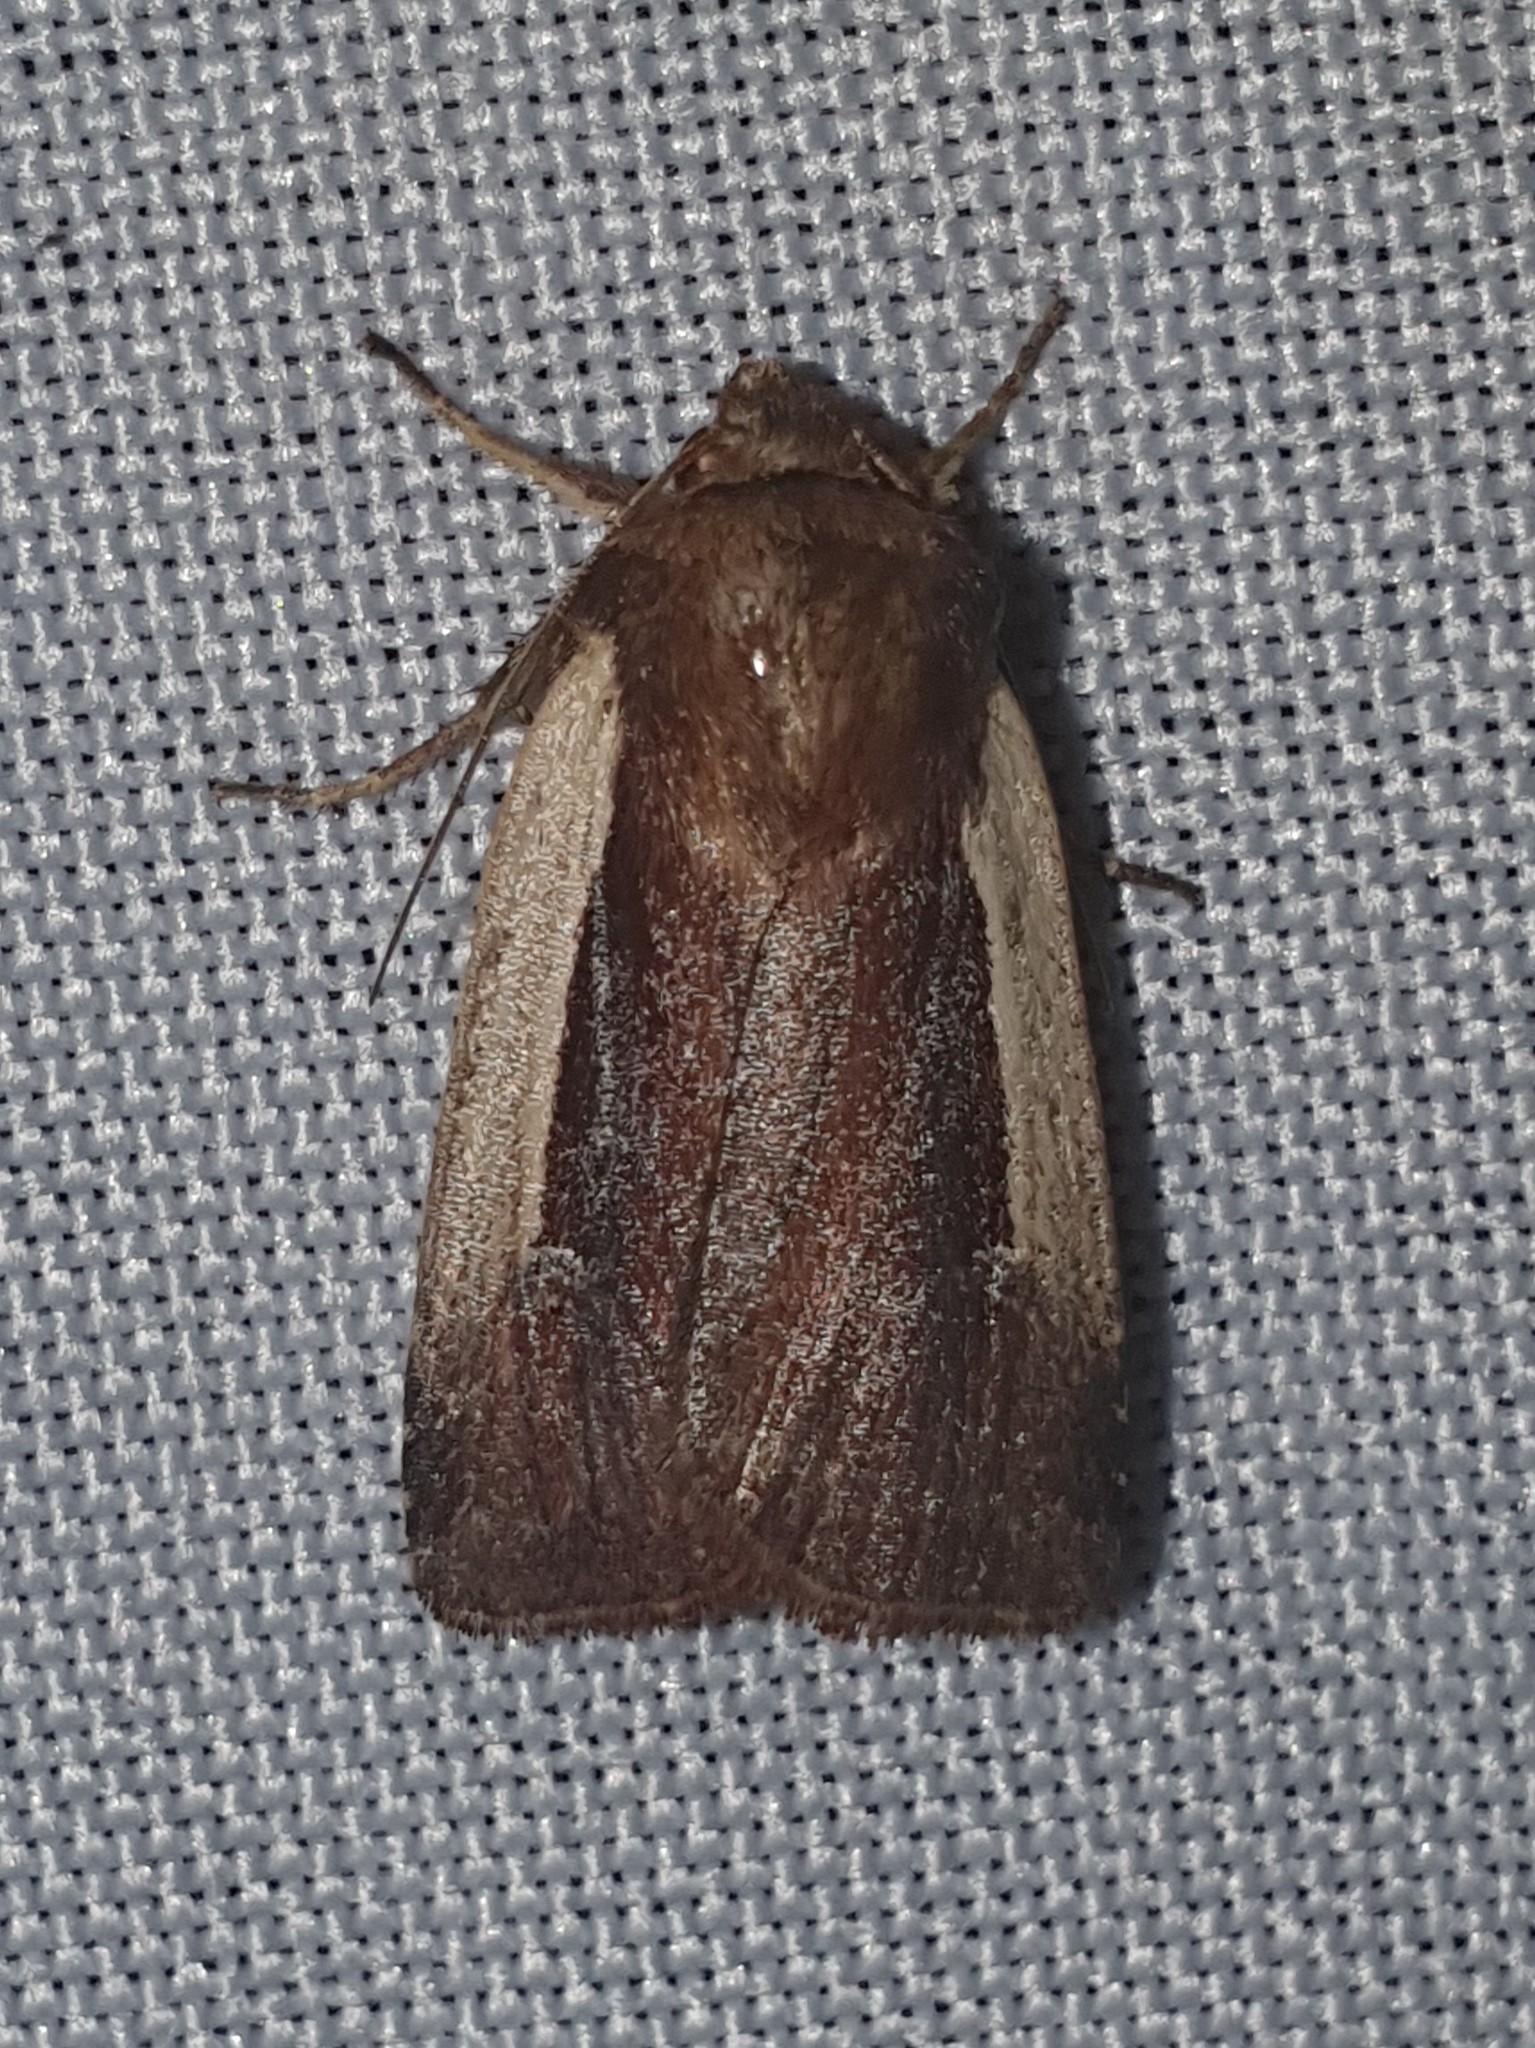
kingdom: Animalia
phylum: Arthropoda
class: Insecta
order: Lepidoptera
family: Noctuidae
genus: Ochropleura
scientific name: Ochropleura plecta
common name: Flame shoulder
